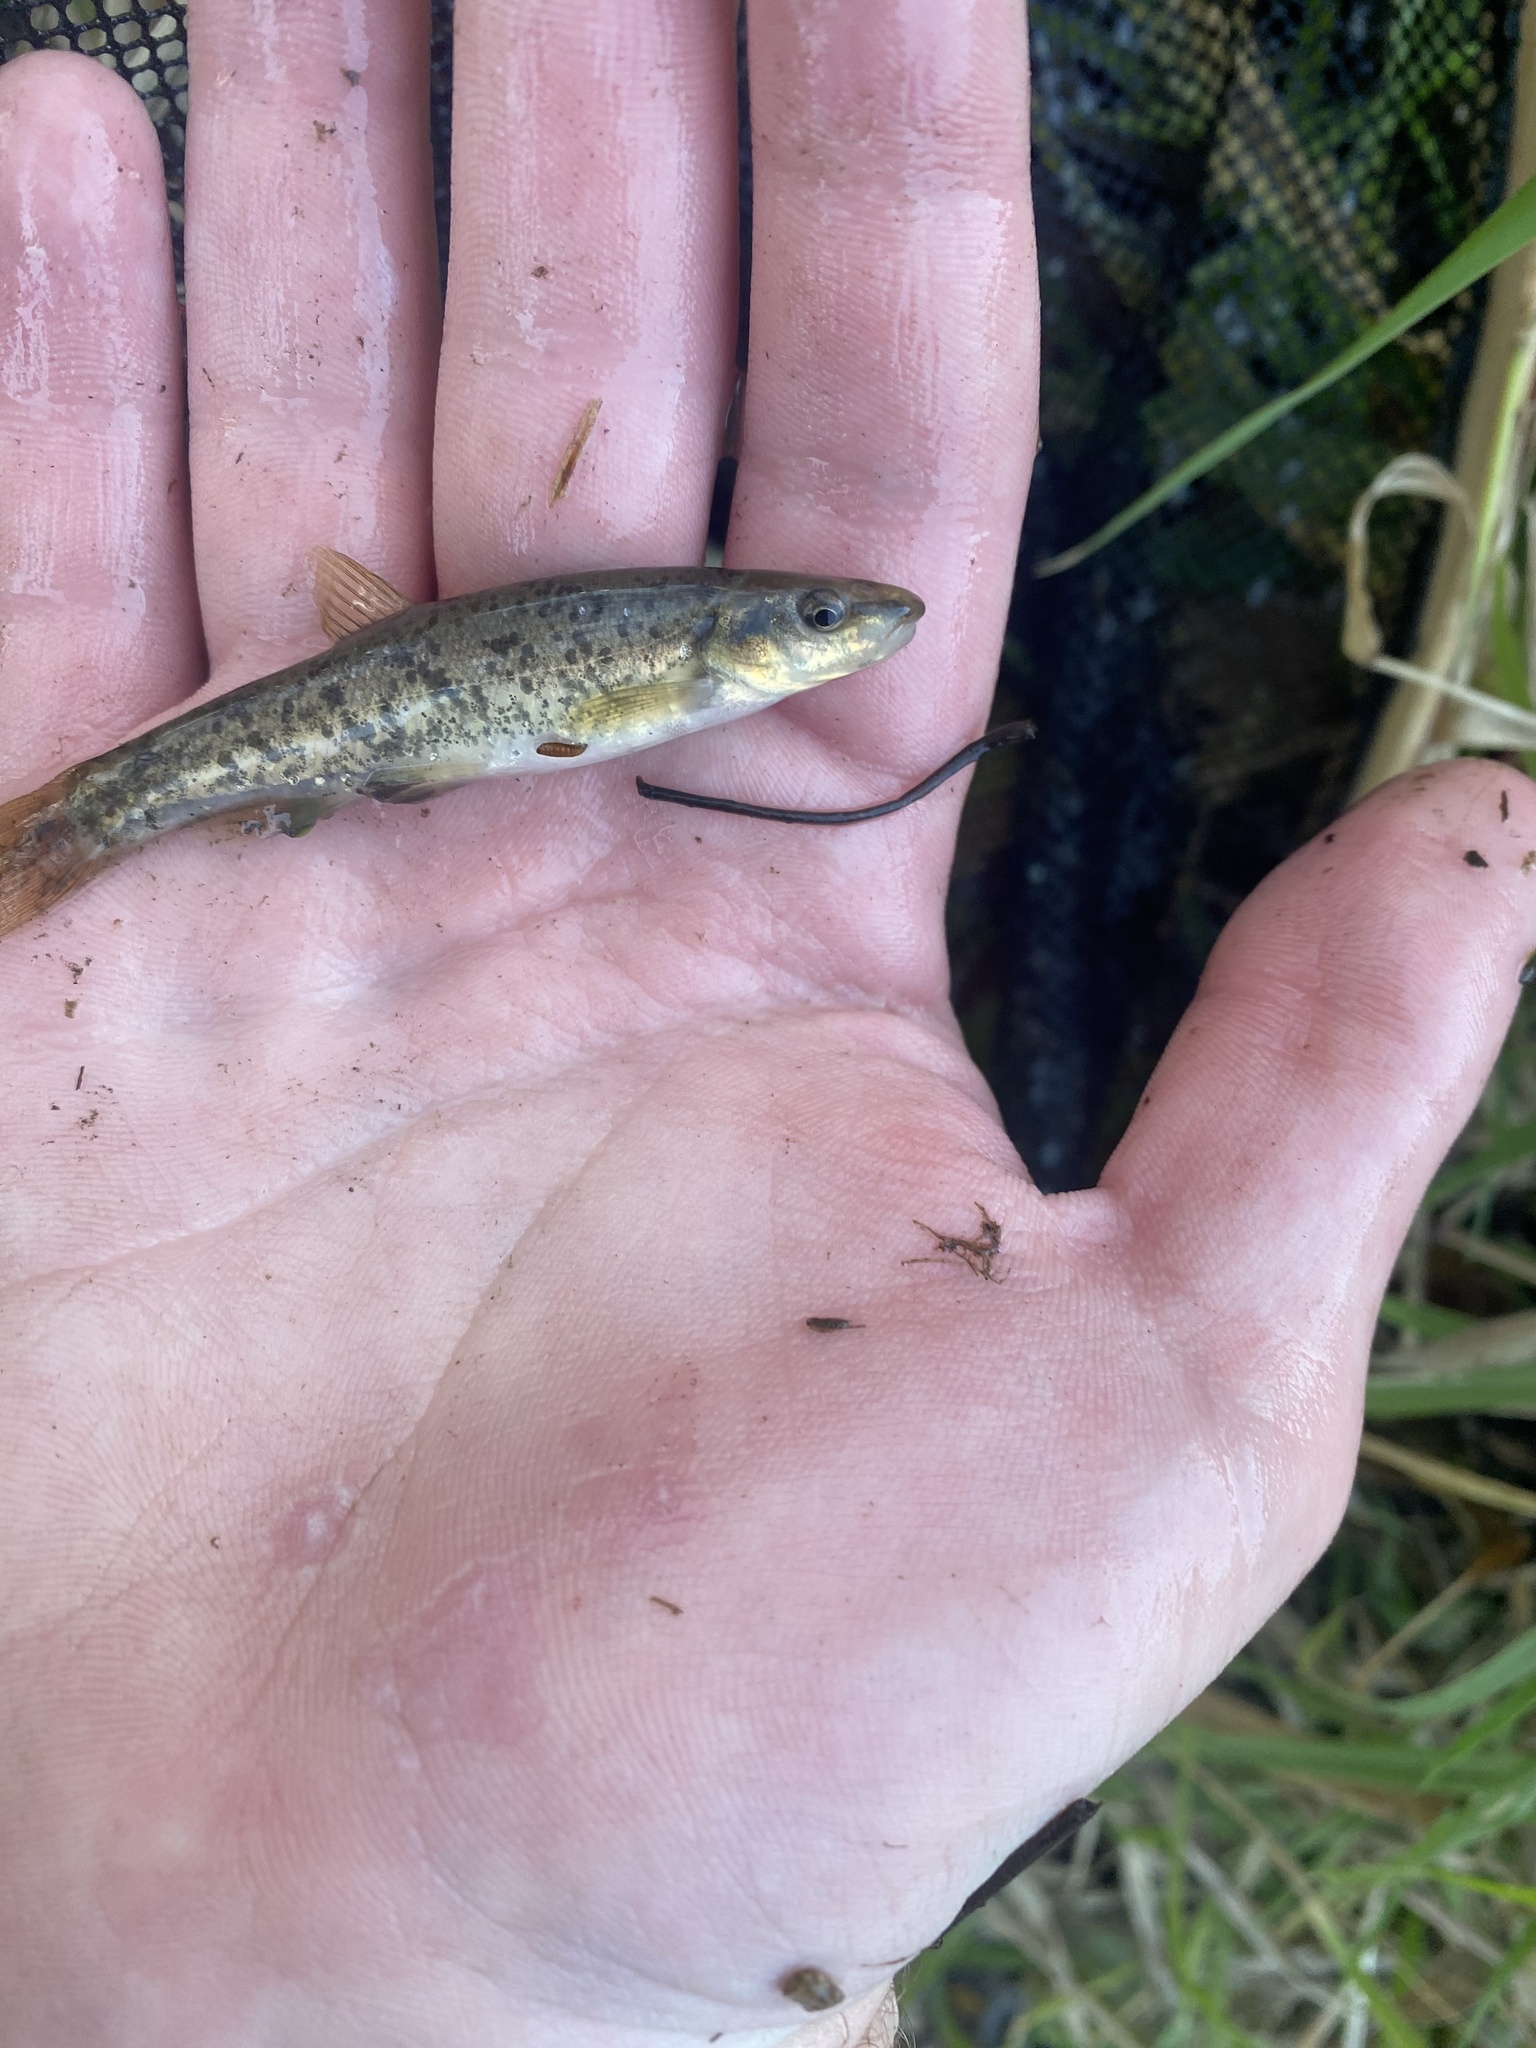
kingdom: Animalia
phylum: Chordata
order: Cypriniformes
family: Cyprinidae
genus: Rhinichthys
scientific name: Rhinichthys obtusus
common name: Western blacknose dace
